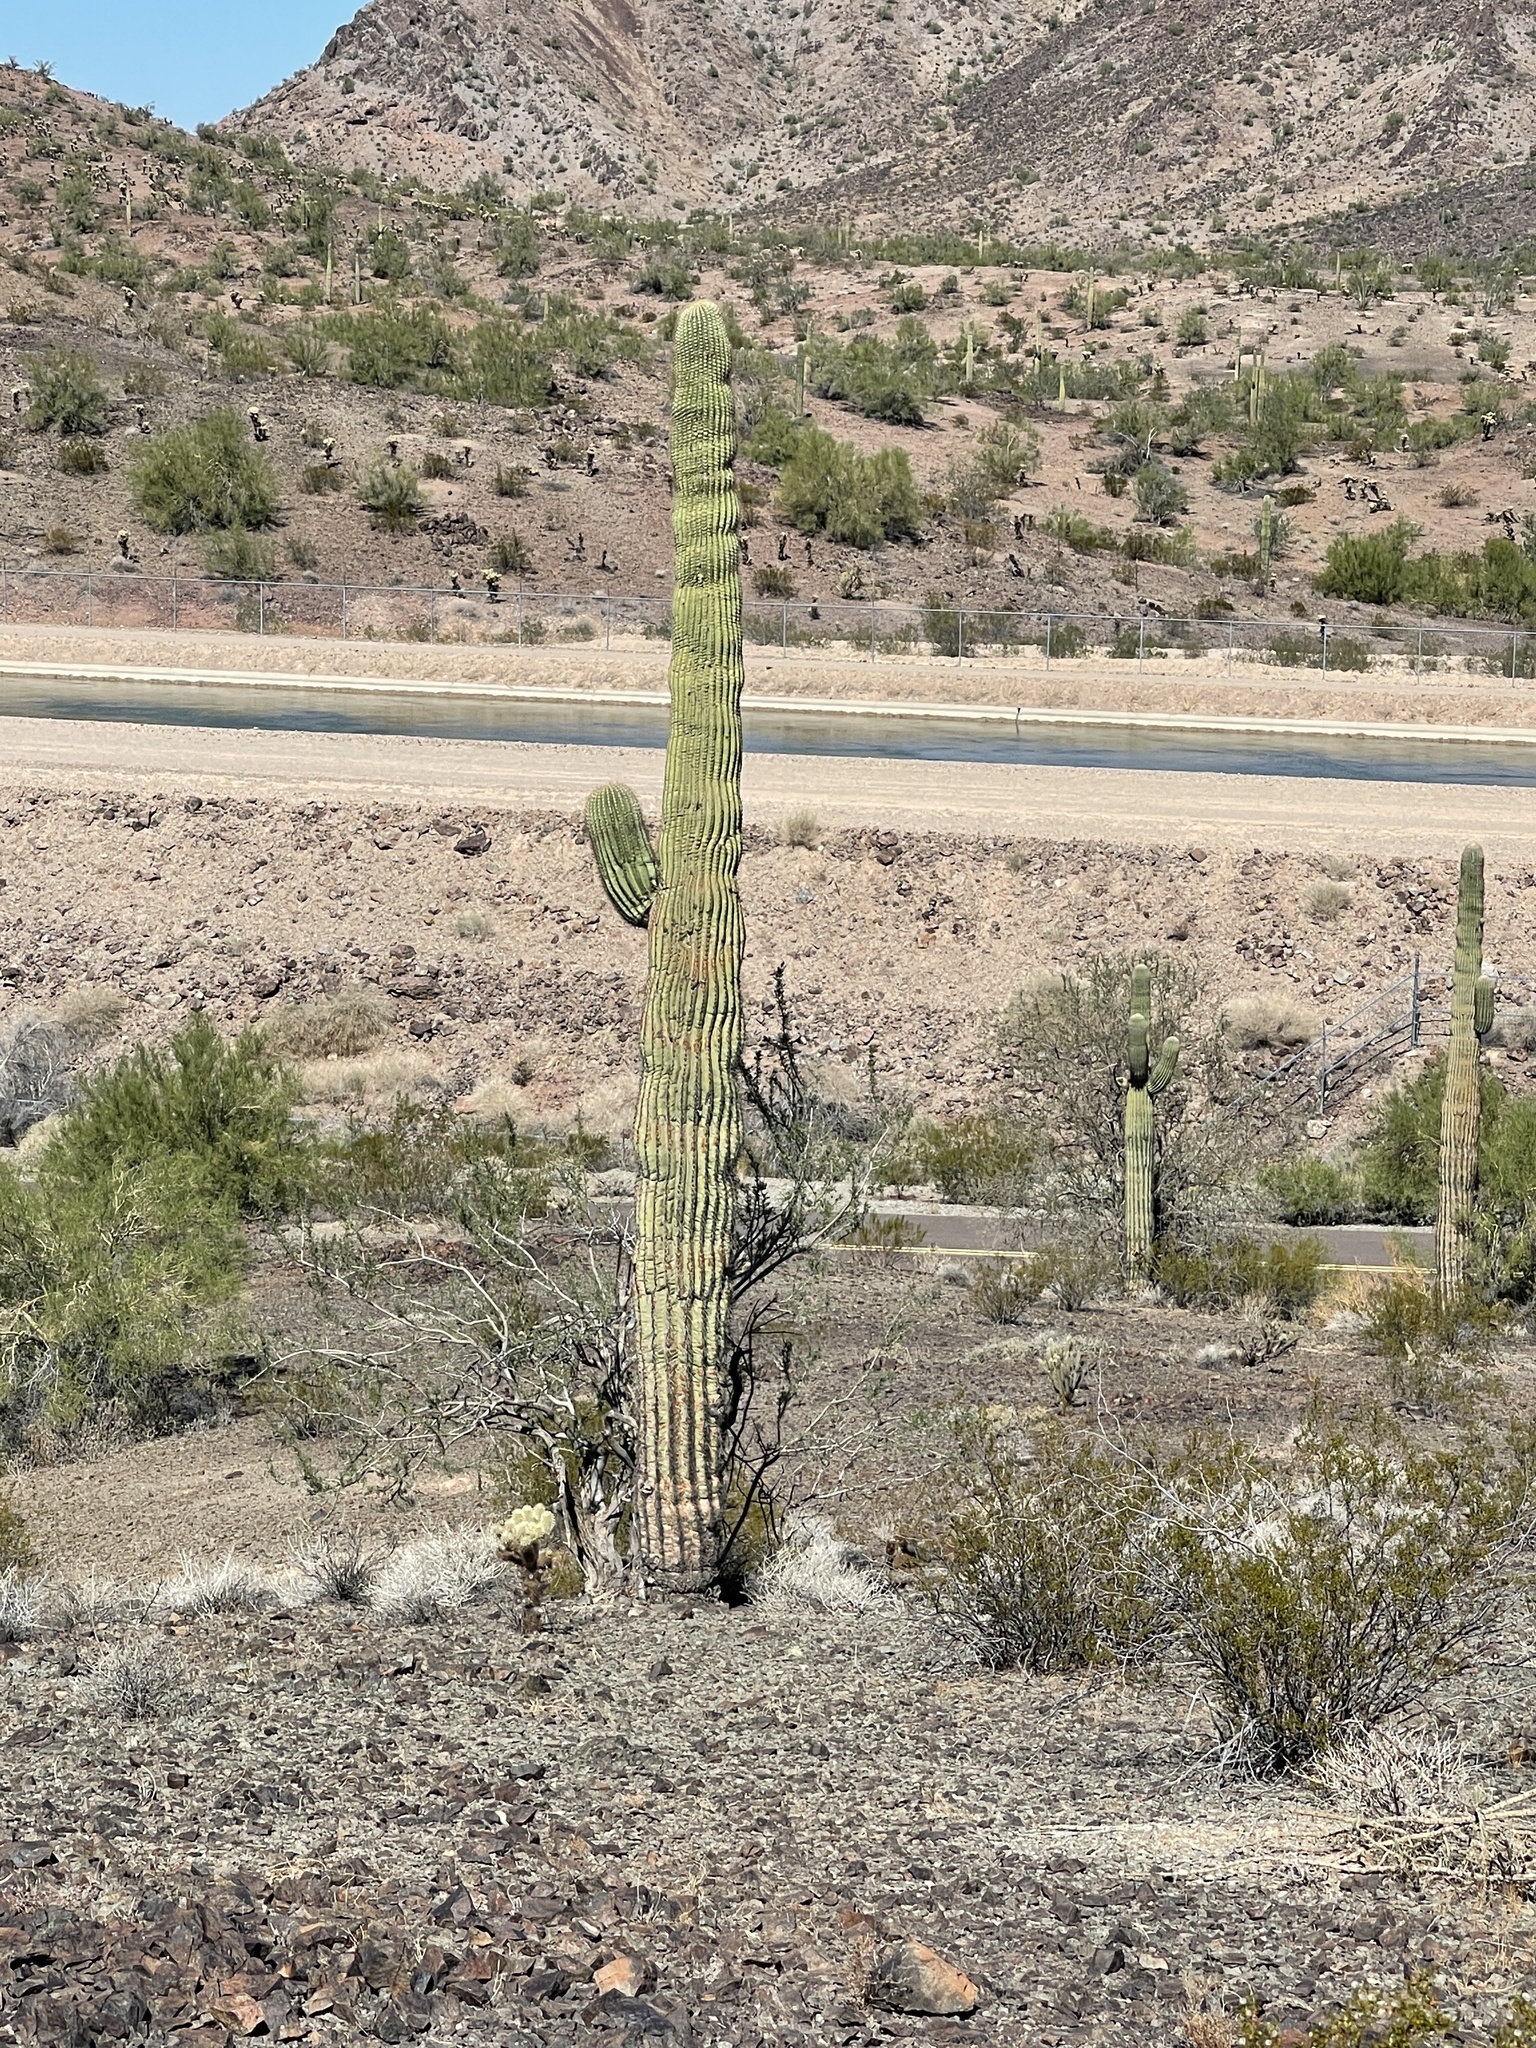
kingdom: Plantae
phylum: Tracheophyta
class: Magnoliopsida
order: Caryophyllales
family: Cactaceae
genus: Carnegiea
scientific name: Carnegiea gigantea
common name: Saguaro
